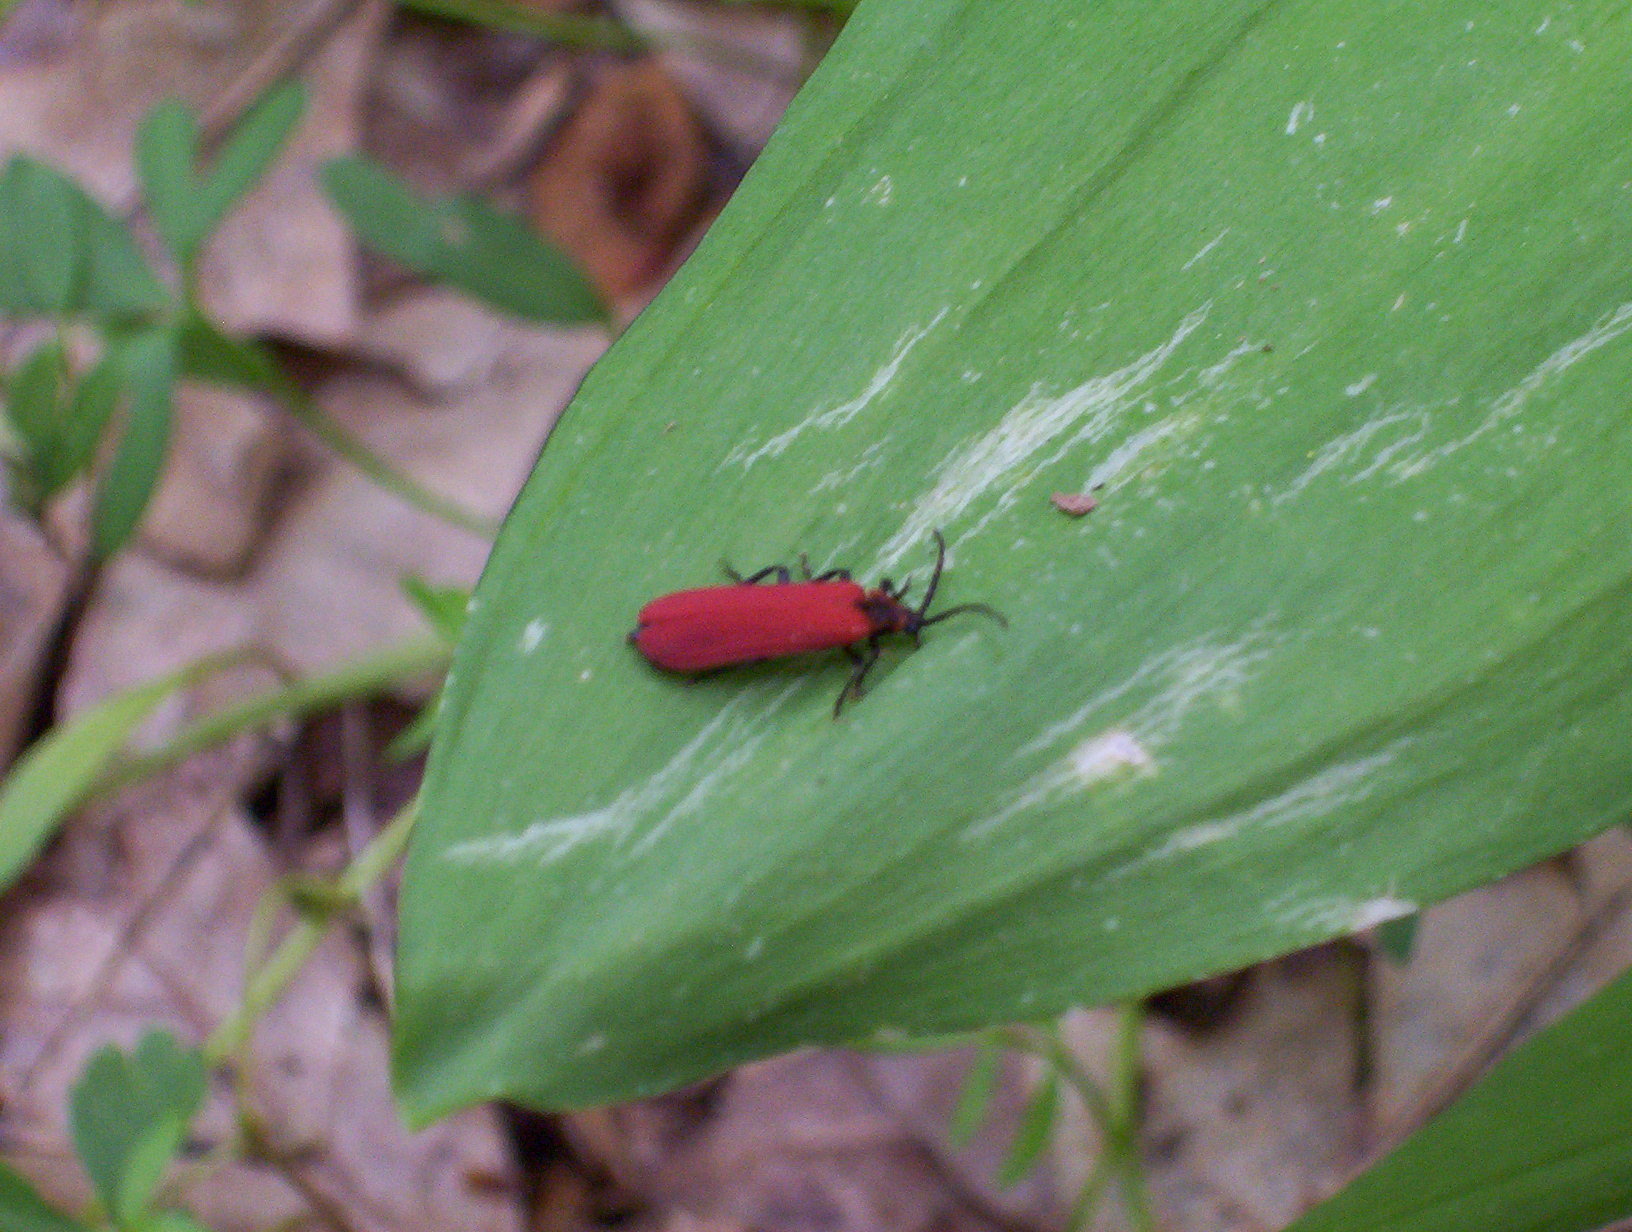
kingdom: Animalia
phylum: Arthropoda
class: Insecta
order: Coleoptera
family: Lycidae
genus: Dictyoptera
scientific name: Dictyoptera aurora
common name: Golden net-winged beetle
